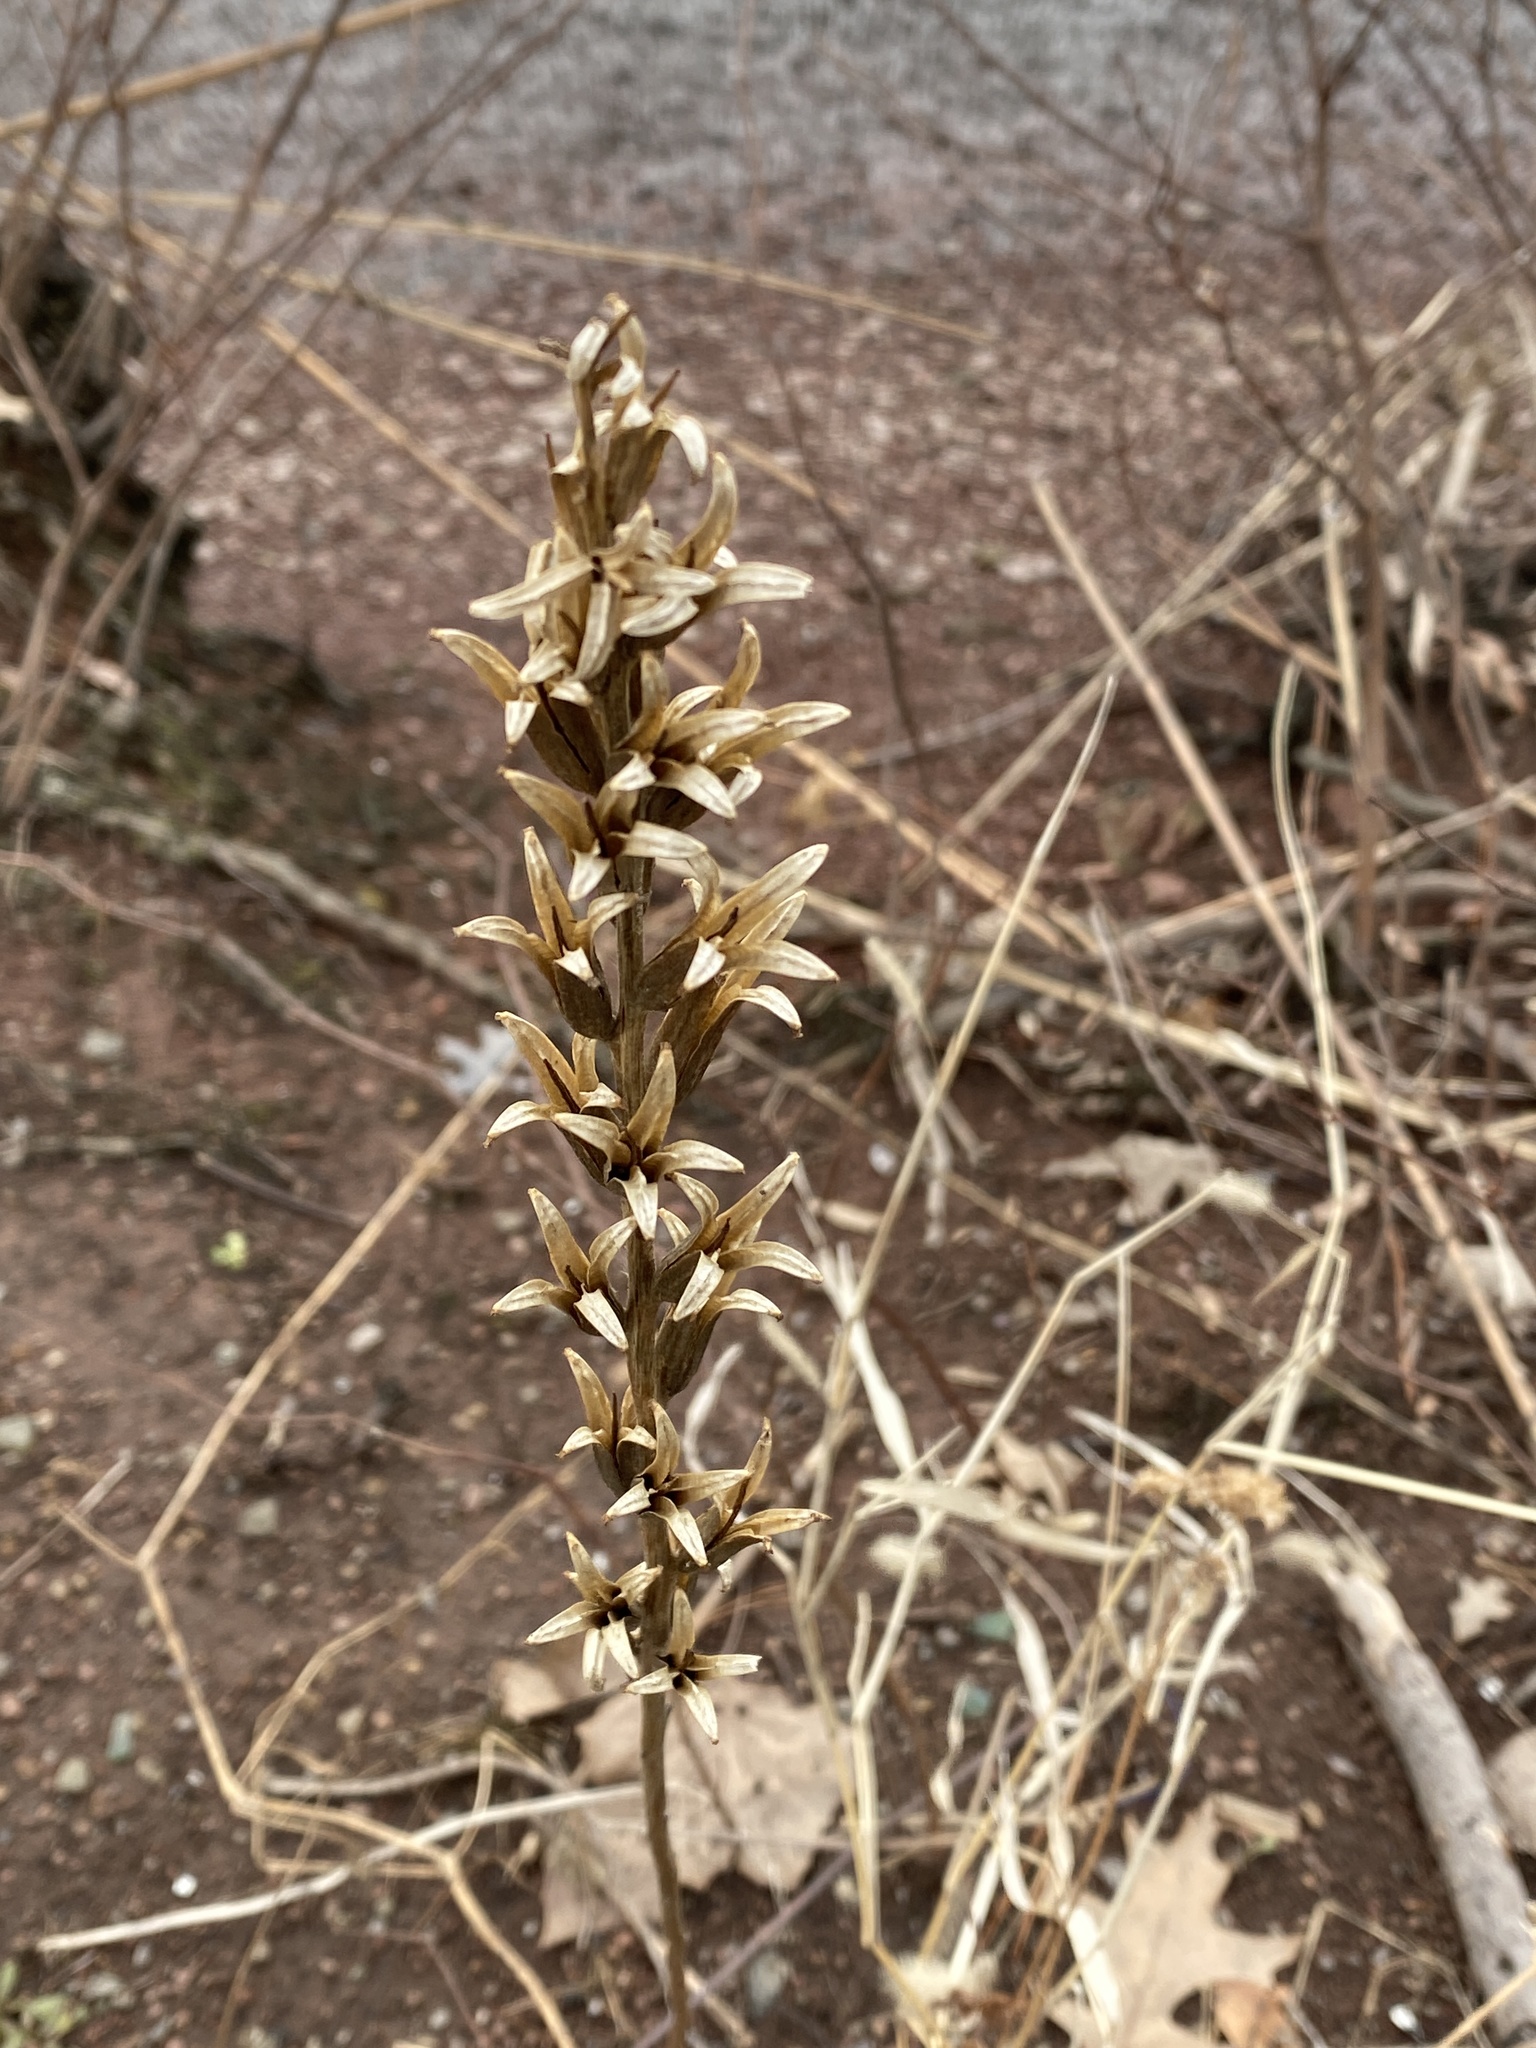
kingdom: Plantae
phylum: Tracheophyta
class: Magnoliopsida
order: Myrtales
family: Onagraceae
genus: Oenothera
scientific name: Oenothera biennis
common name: Common evening-primrose
